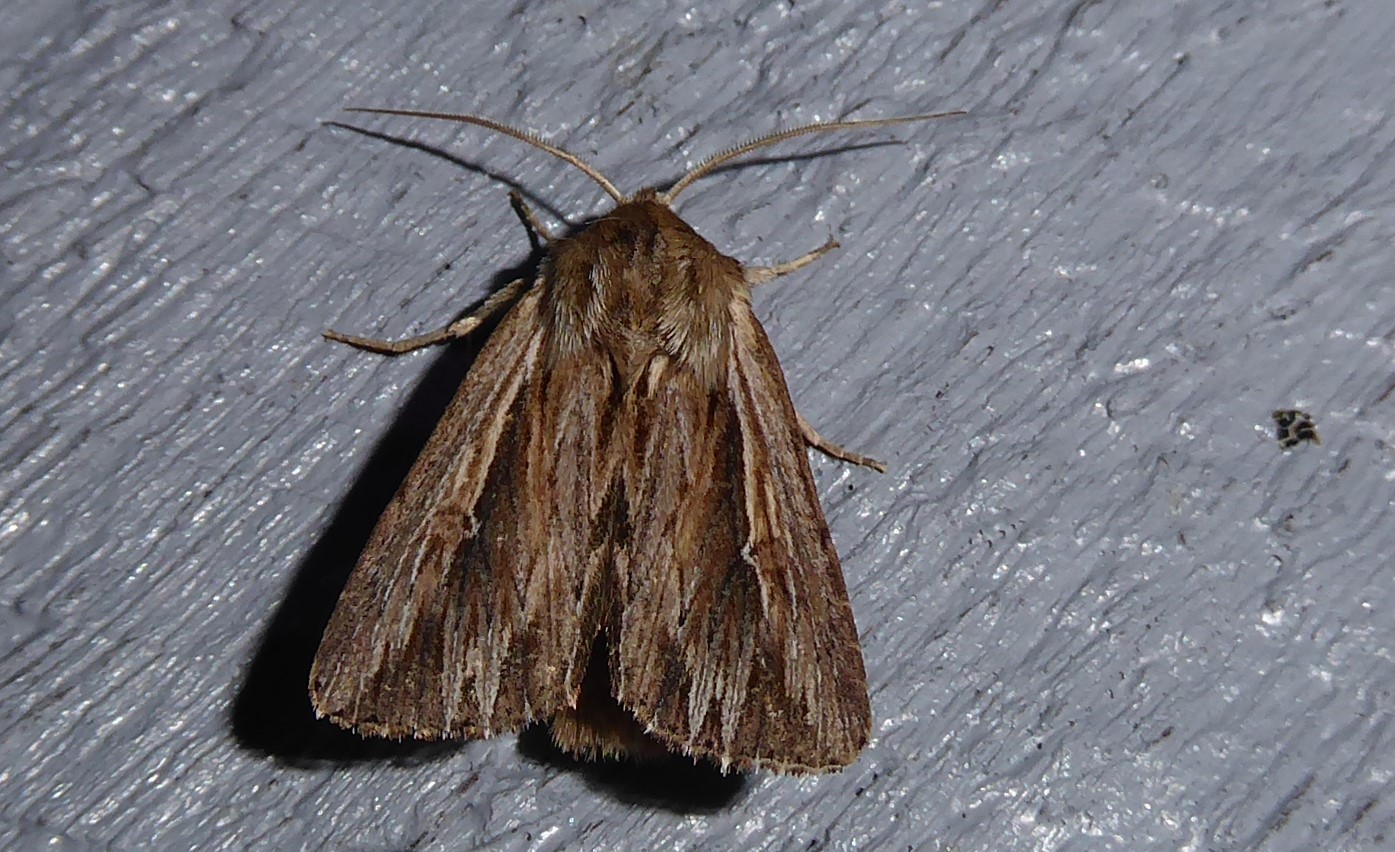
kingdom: Animalia
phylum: Arthropoda
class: Insecta
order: Lepidoptera
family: Noctuidae
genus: Persectania
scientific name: Persectania aversa
